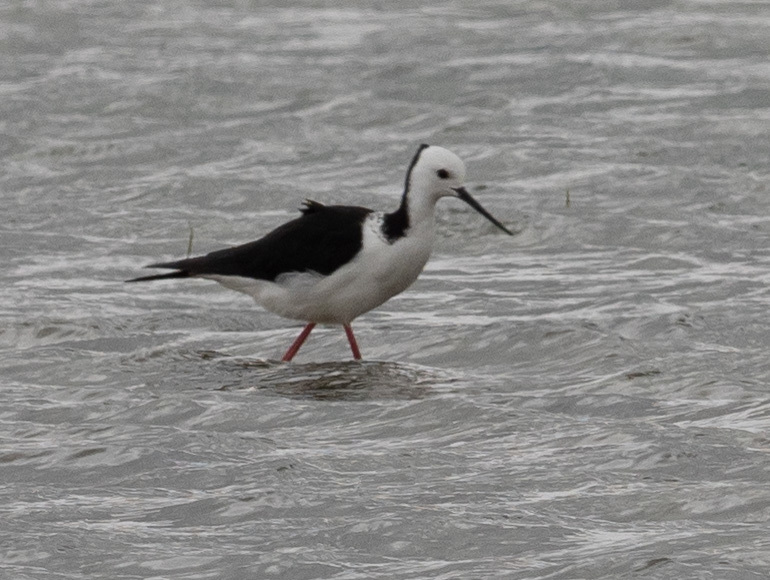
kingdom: Animalia
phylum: Chordata
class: Aves
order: Charadriiformes
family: Recurvirostridae
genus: Himantopus
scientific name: Himantopus leucocephalus
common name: White-headed stilt
